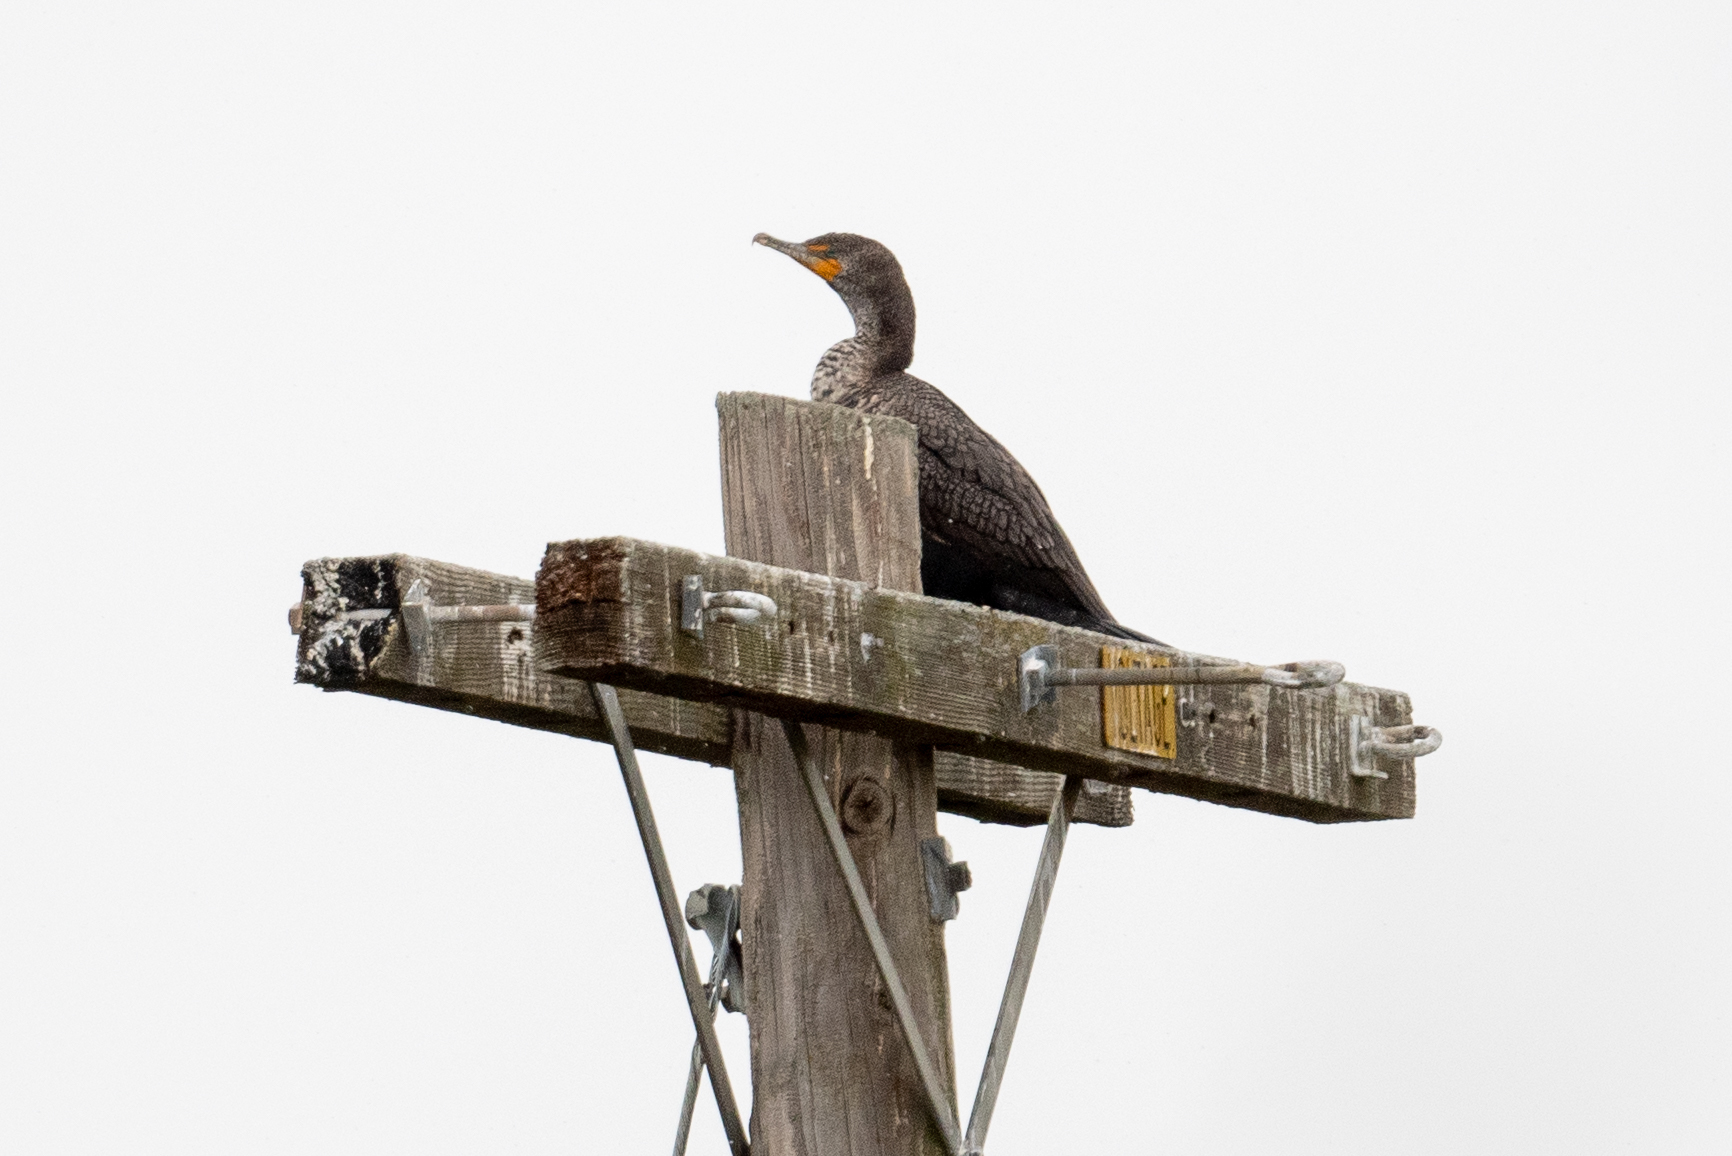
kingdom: Animalia
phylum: Chordata
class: Aves
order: Suliformes
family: Phalacrocoracidae
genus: Phalacrocorax
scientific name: Phalacrocorax auritus
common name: Double-crested cormorant
